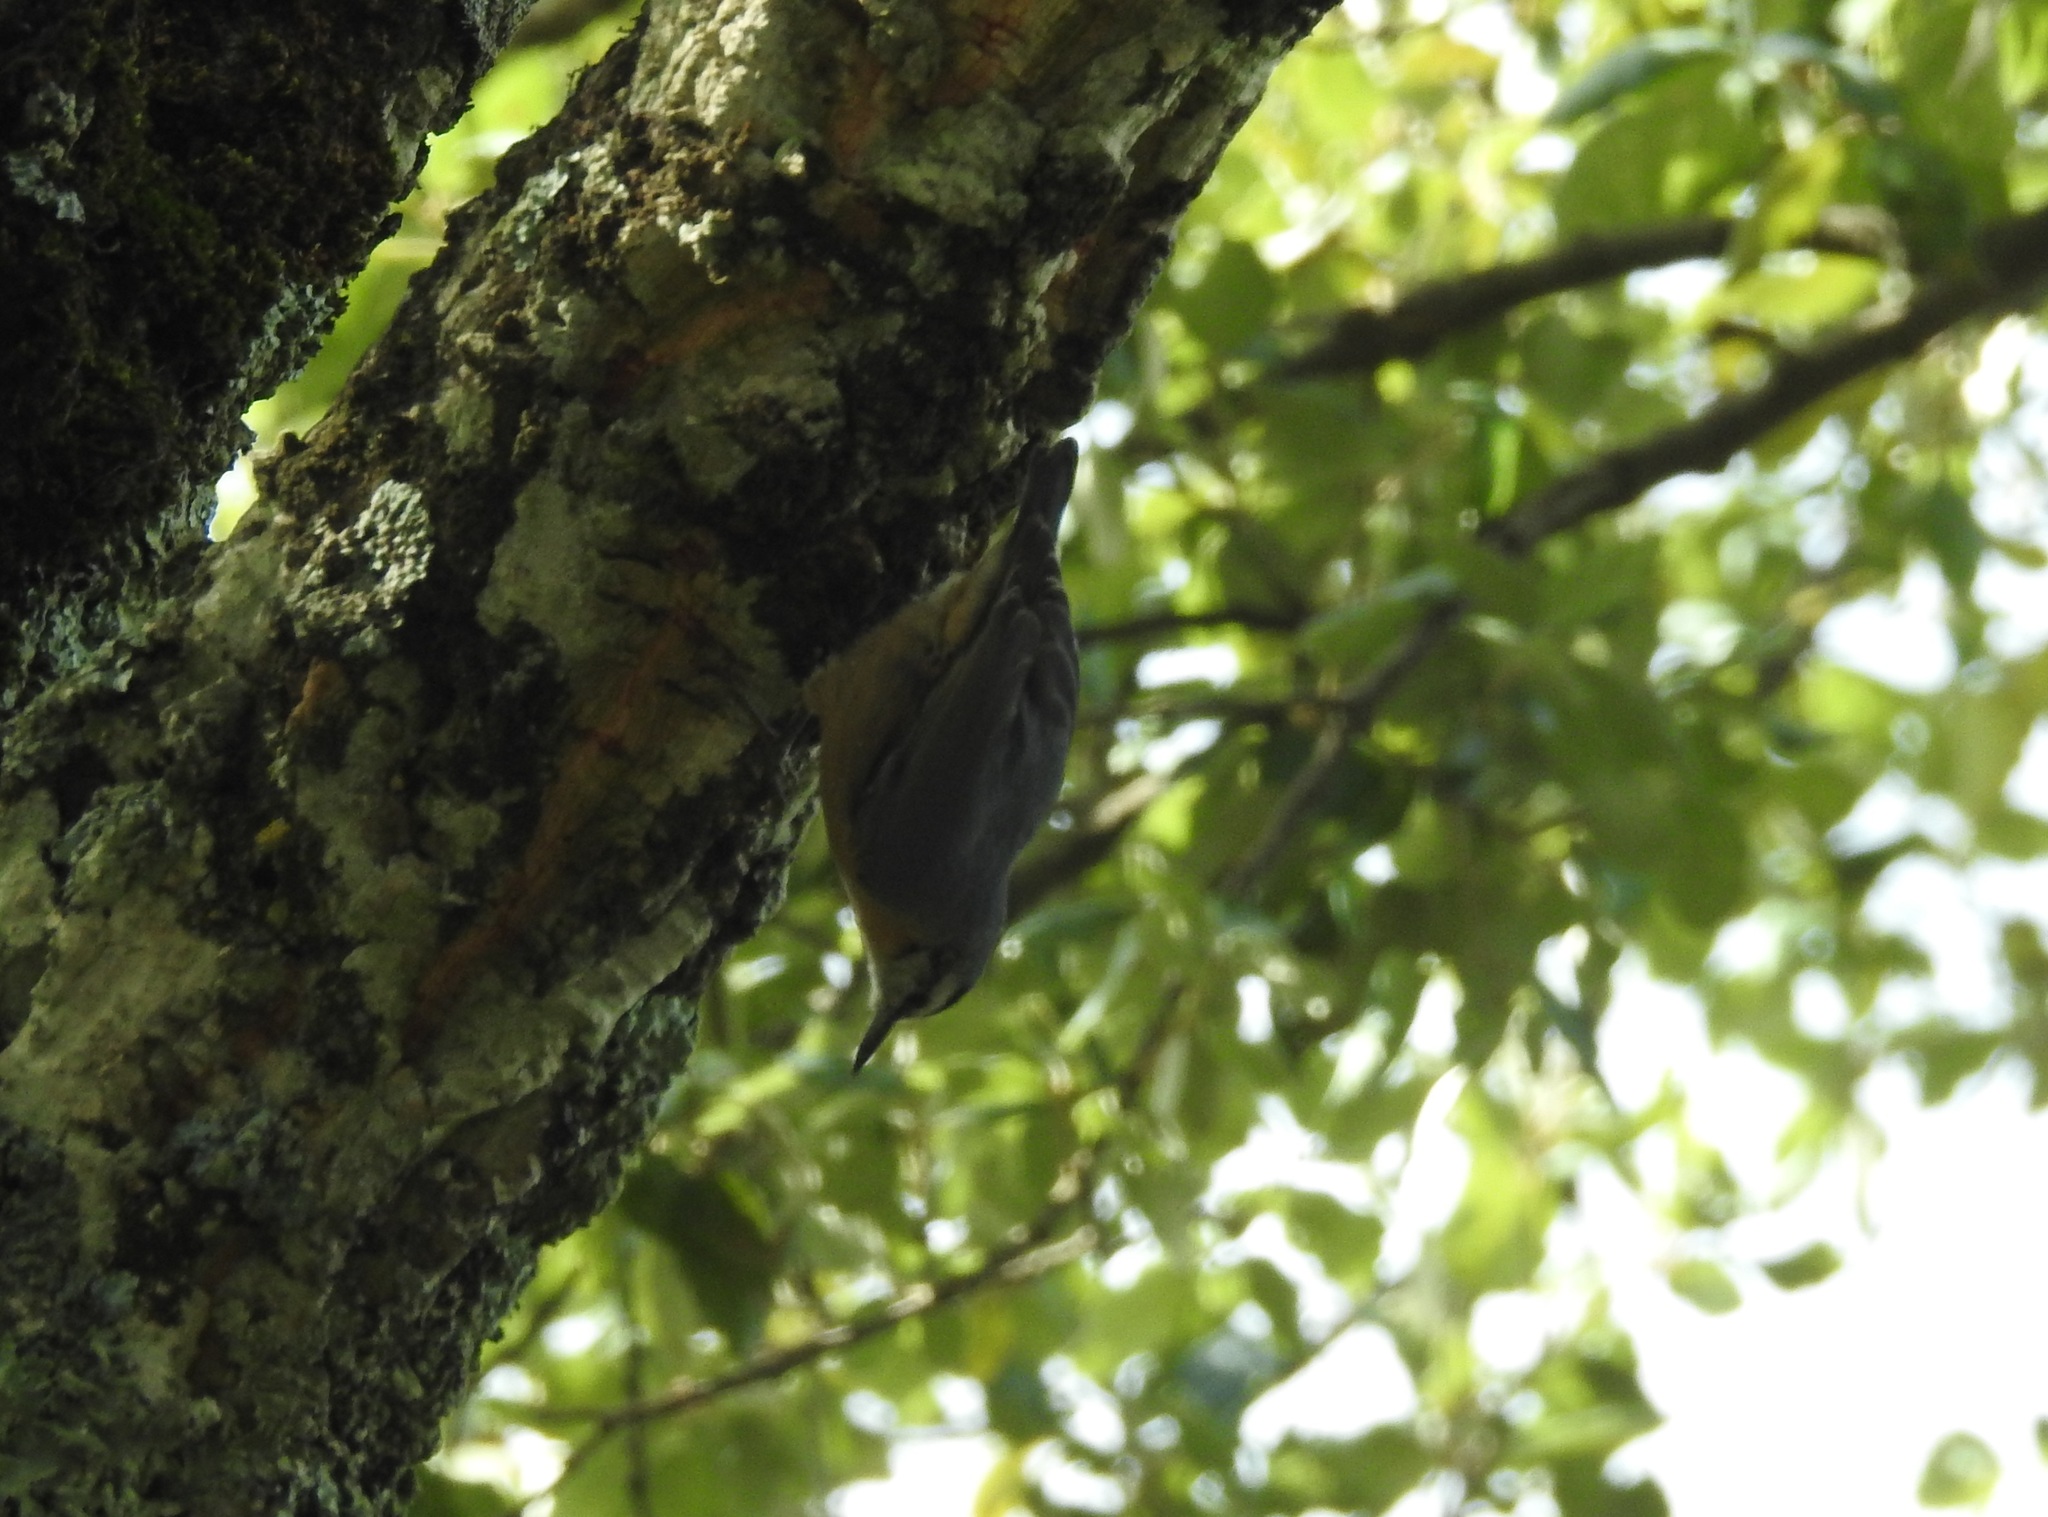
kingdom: Animalia
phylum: Chordata
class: Aves
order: Passeriformes
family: Sittidae
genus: Sitta
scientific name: Sitta ledanti
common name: Algerian nuthatch
